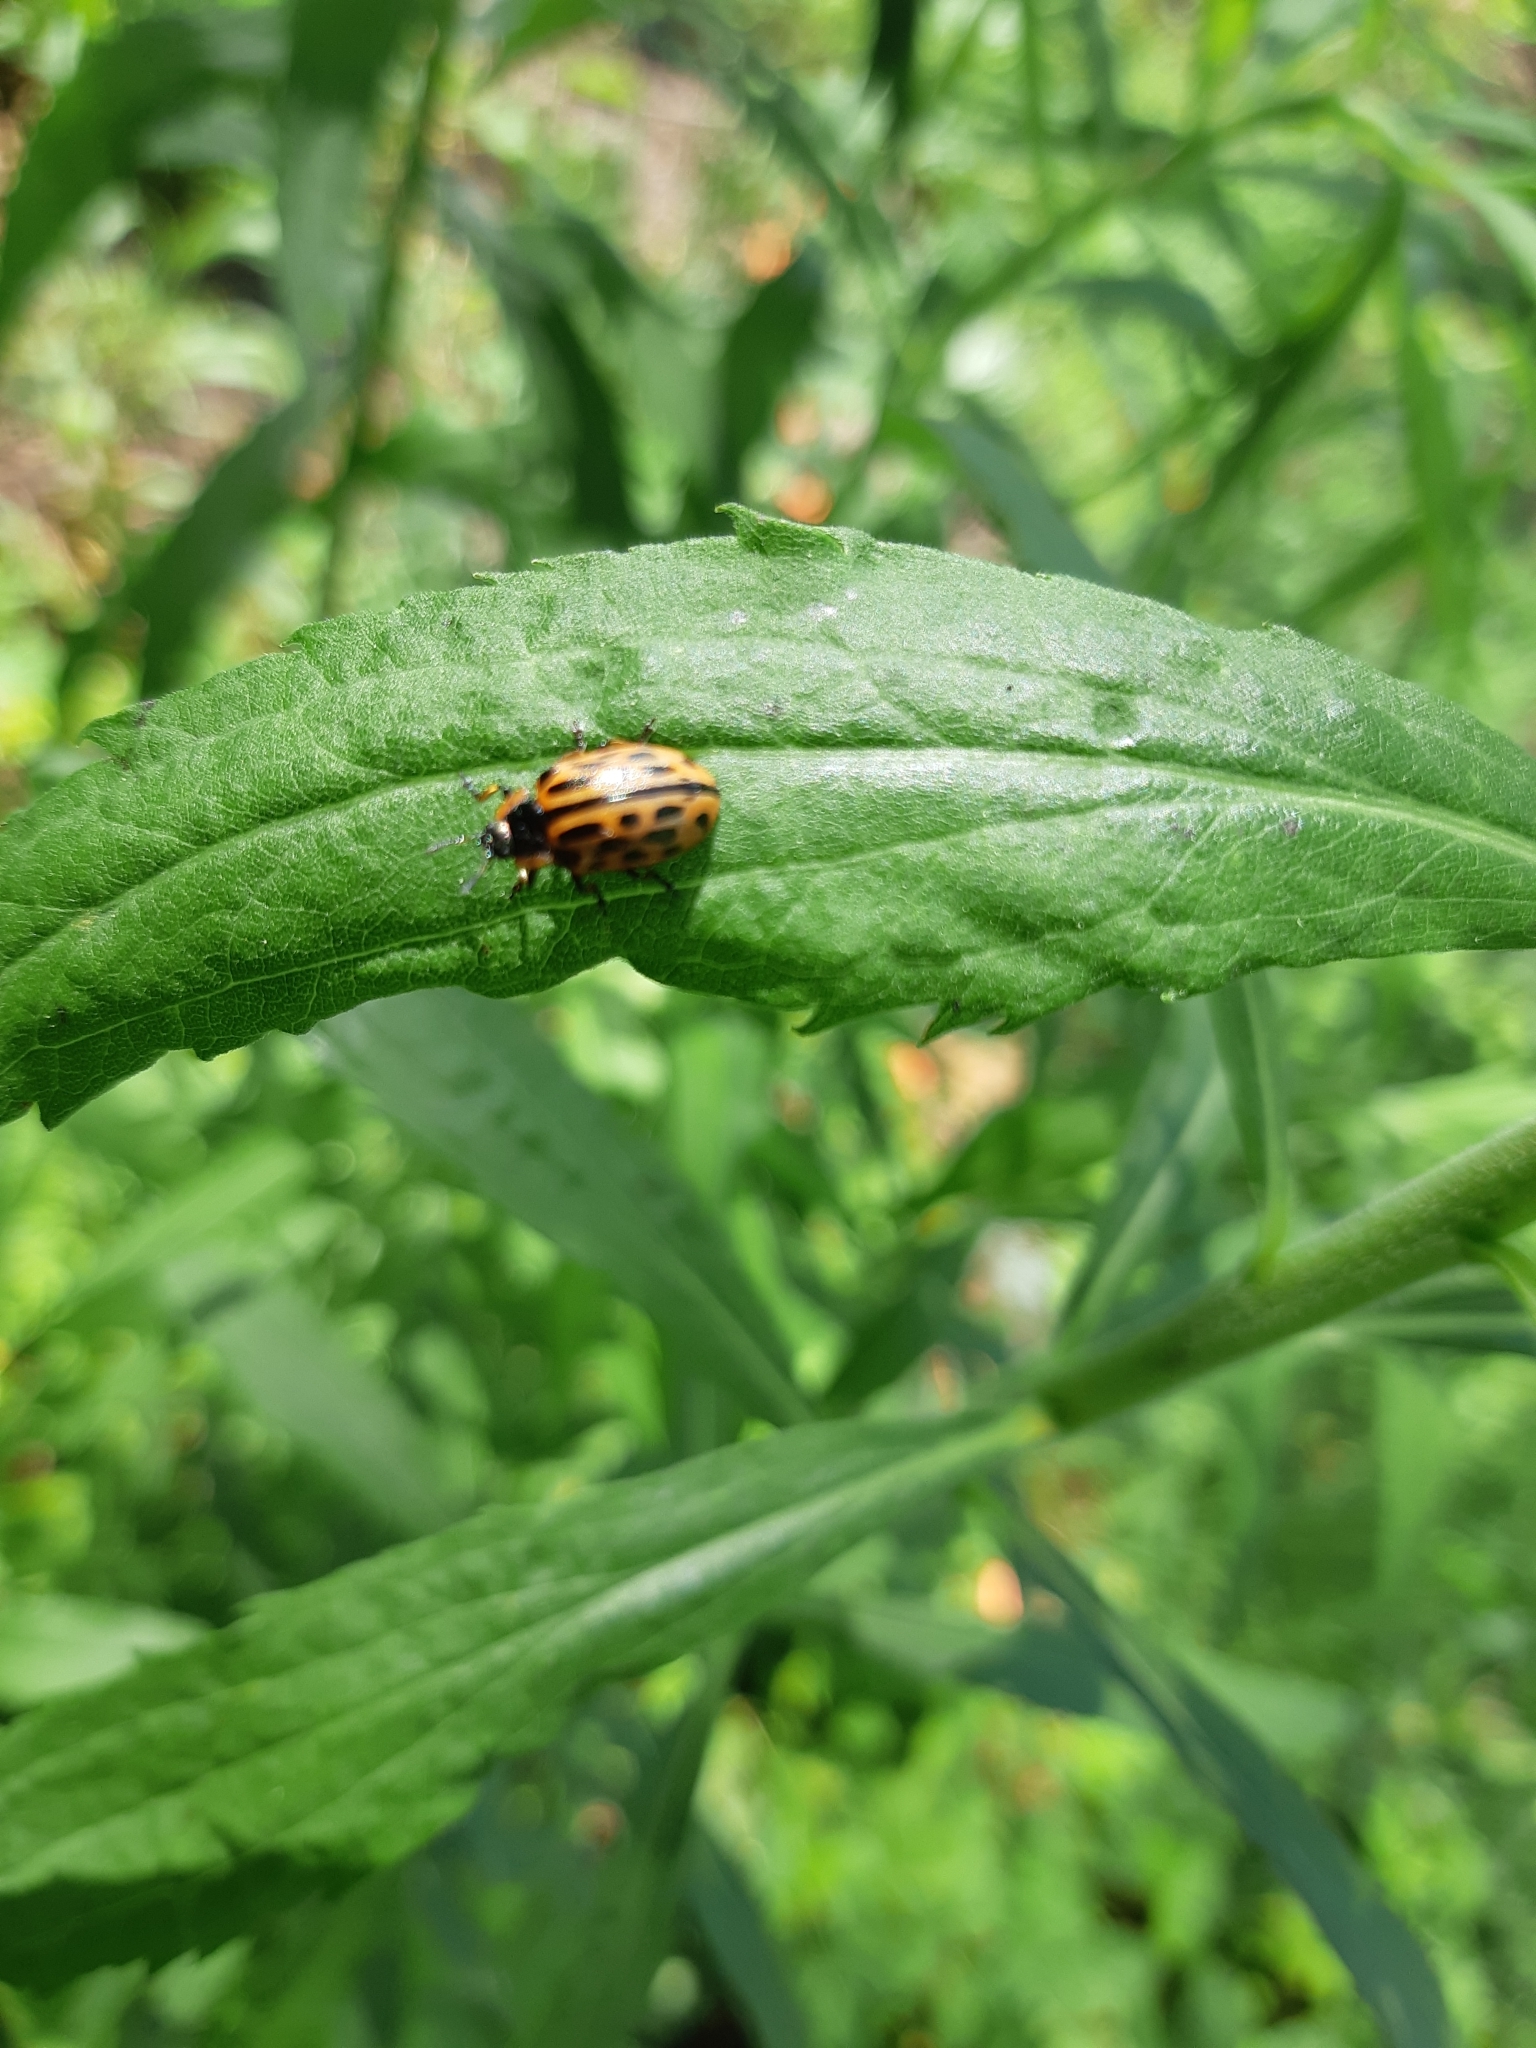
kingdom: Animalia
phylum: Arthropoda
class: Insecta
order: Coleoptera
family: Chrysomelidae
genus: Chrysomela
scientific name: Chrysomela vigintipunctata
